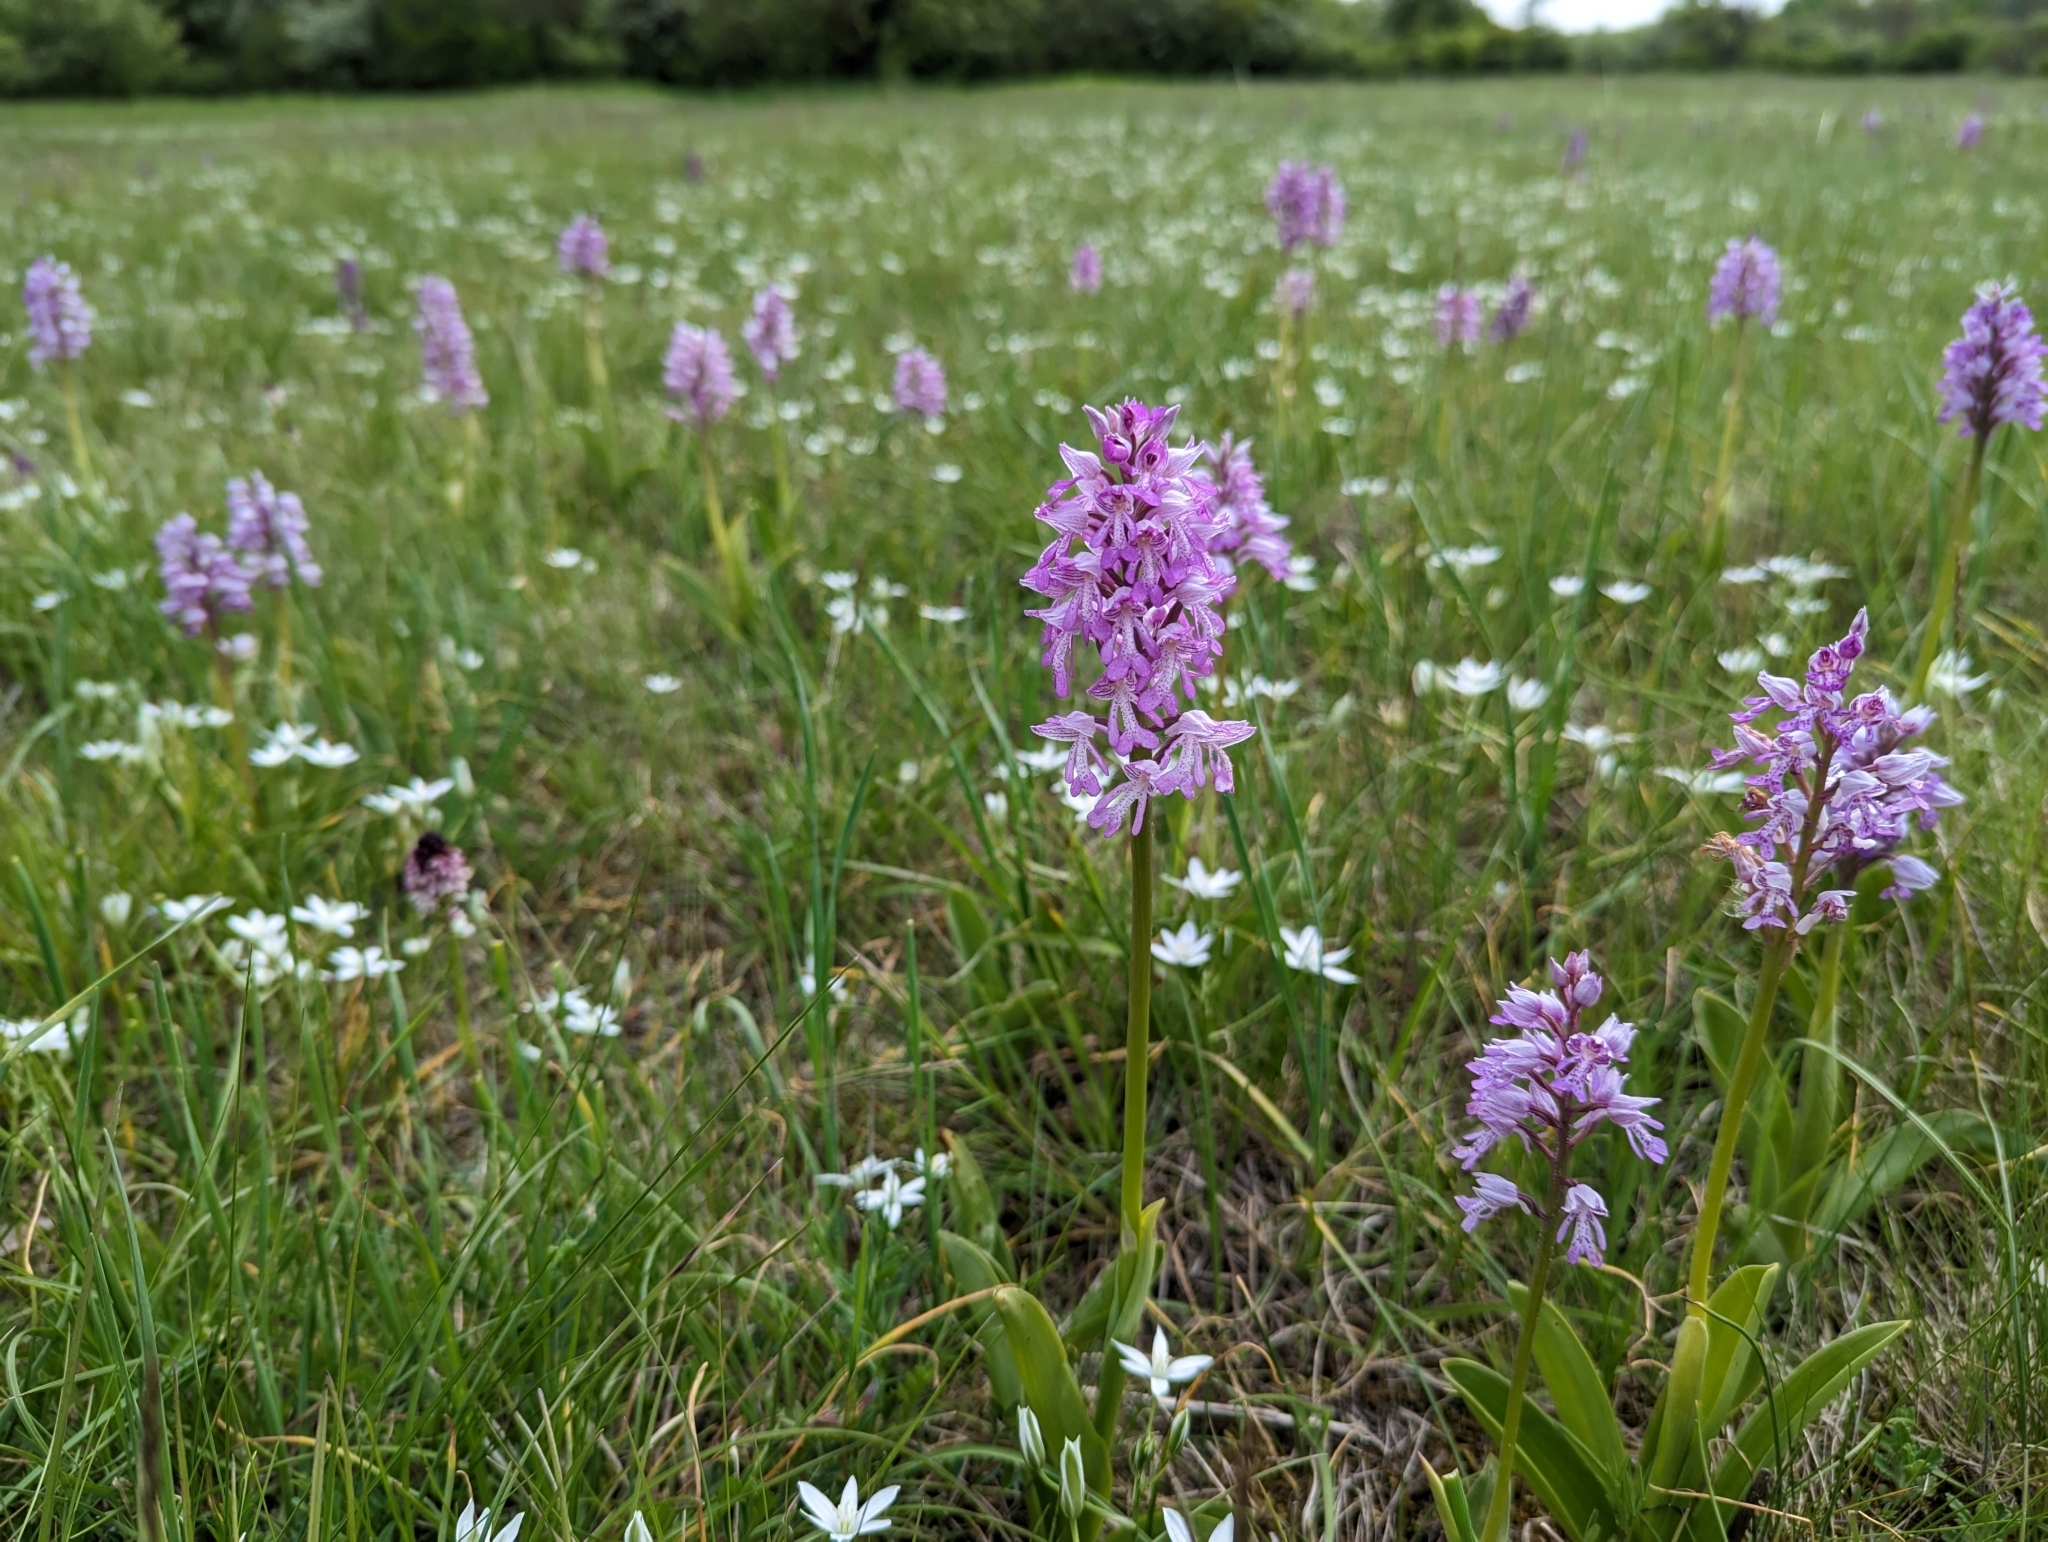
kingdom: Plantae
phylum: Tracheophyta
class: Liliopsida
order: Asparagales
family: Orchidaceae
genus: Orchis
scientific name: Orchis militaris
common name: Military orchid
